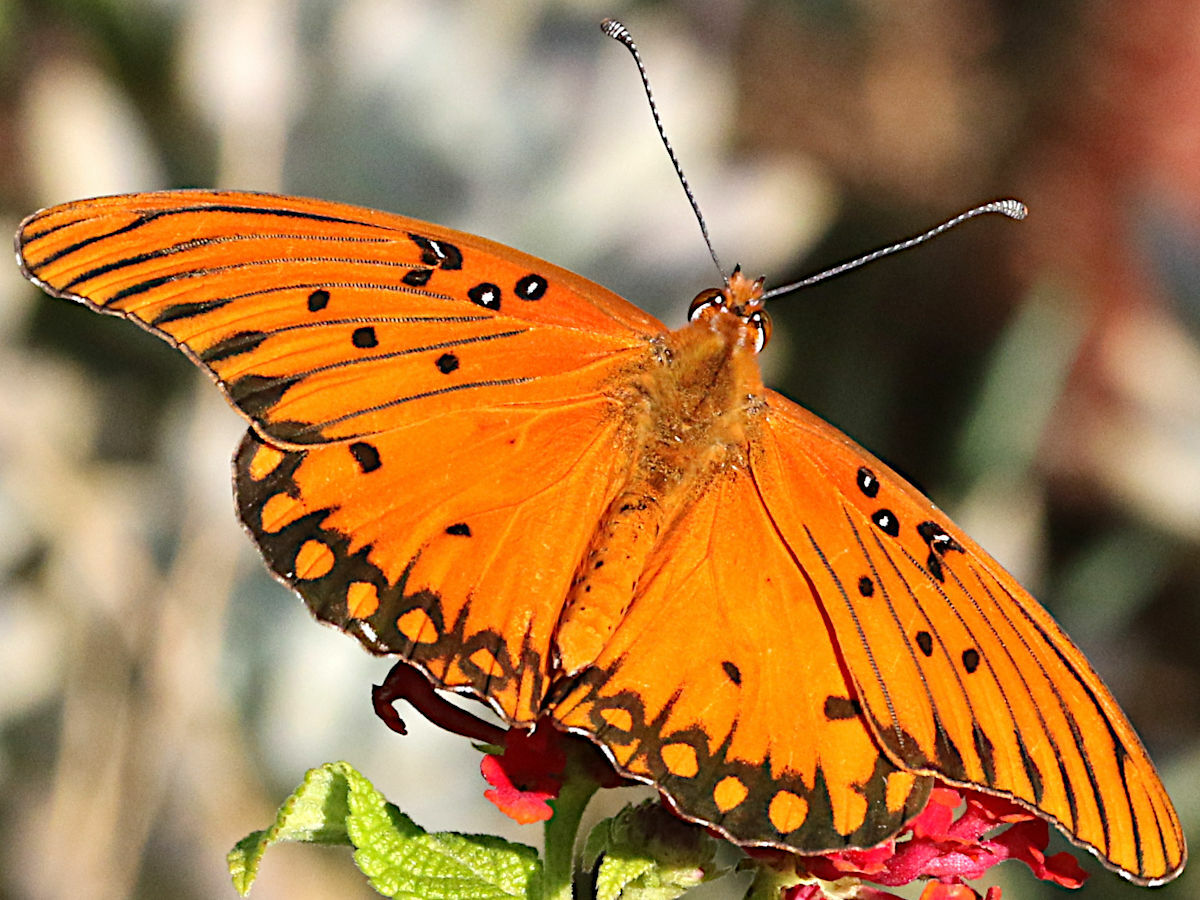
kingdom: Animalia
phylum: Arthropoda
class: Insecta
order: Lepidoptera
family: Nymphalidae
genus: Dione
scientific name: Dione vanillae
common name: Gulf fritillary
